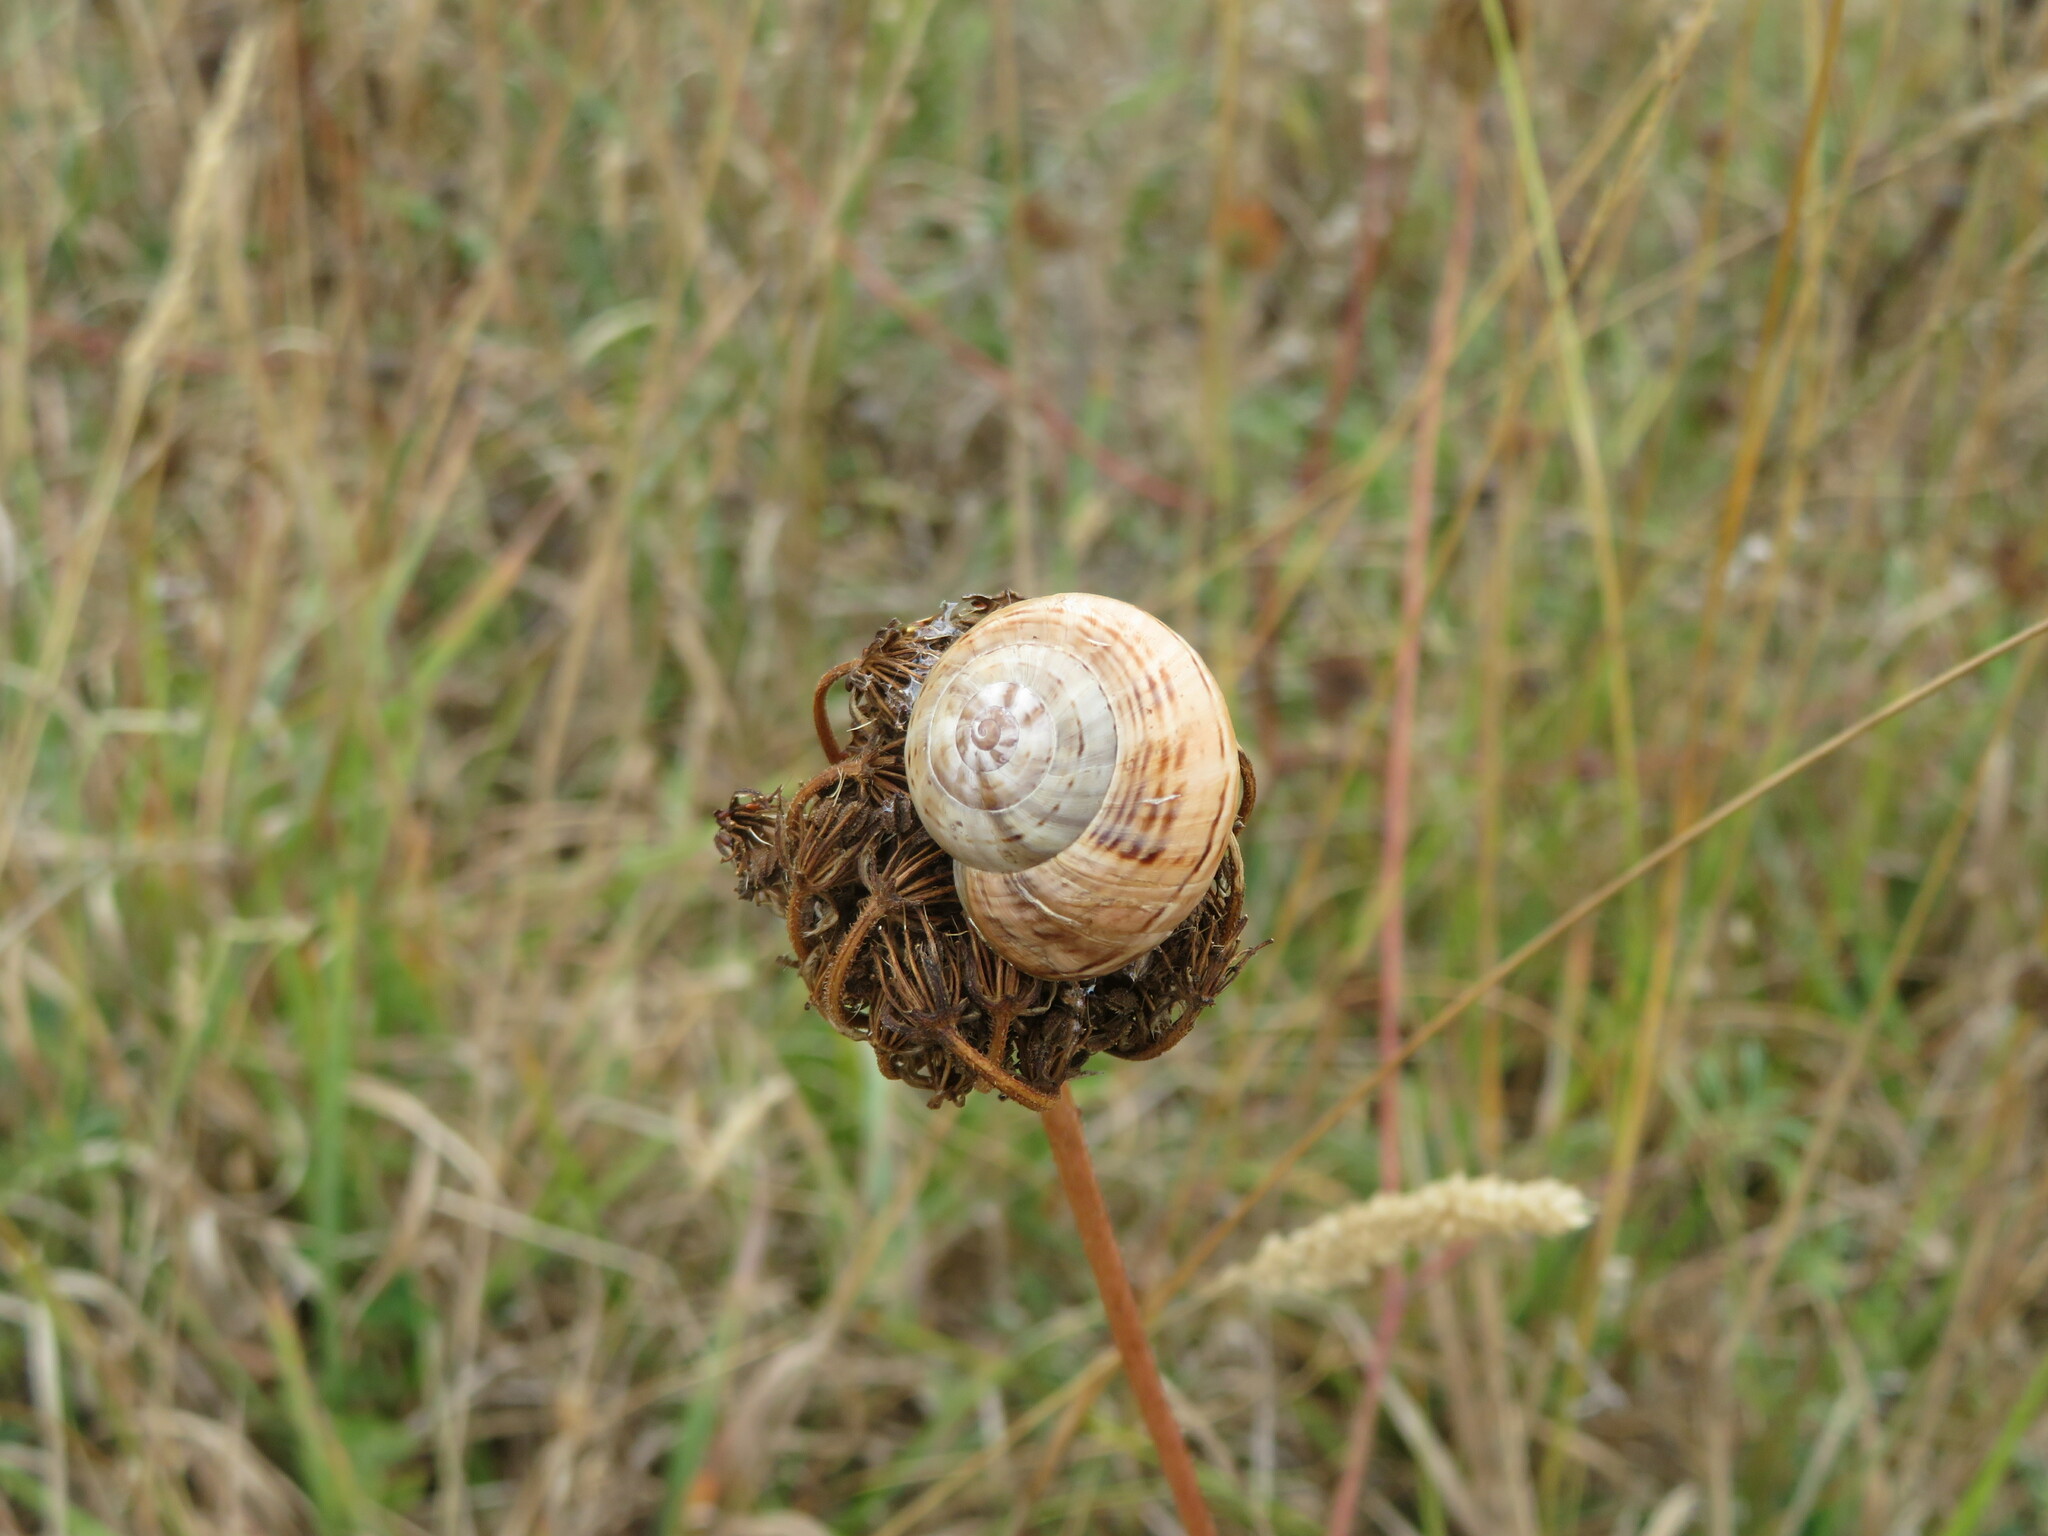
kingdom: Animalia
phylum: Mollusca
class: Gastropoda
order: Stylommatophora
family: Helicidae
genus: Theba
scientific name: Theba pisana
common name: White snail
